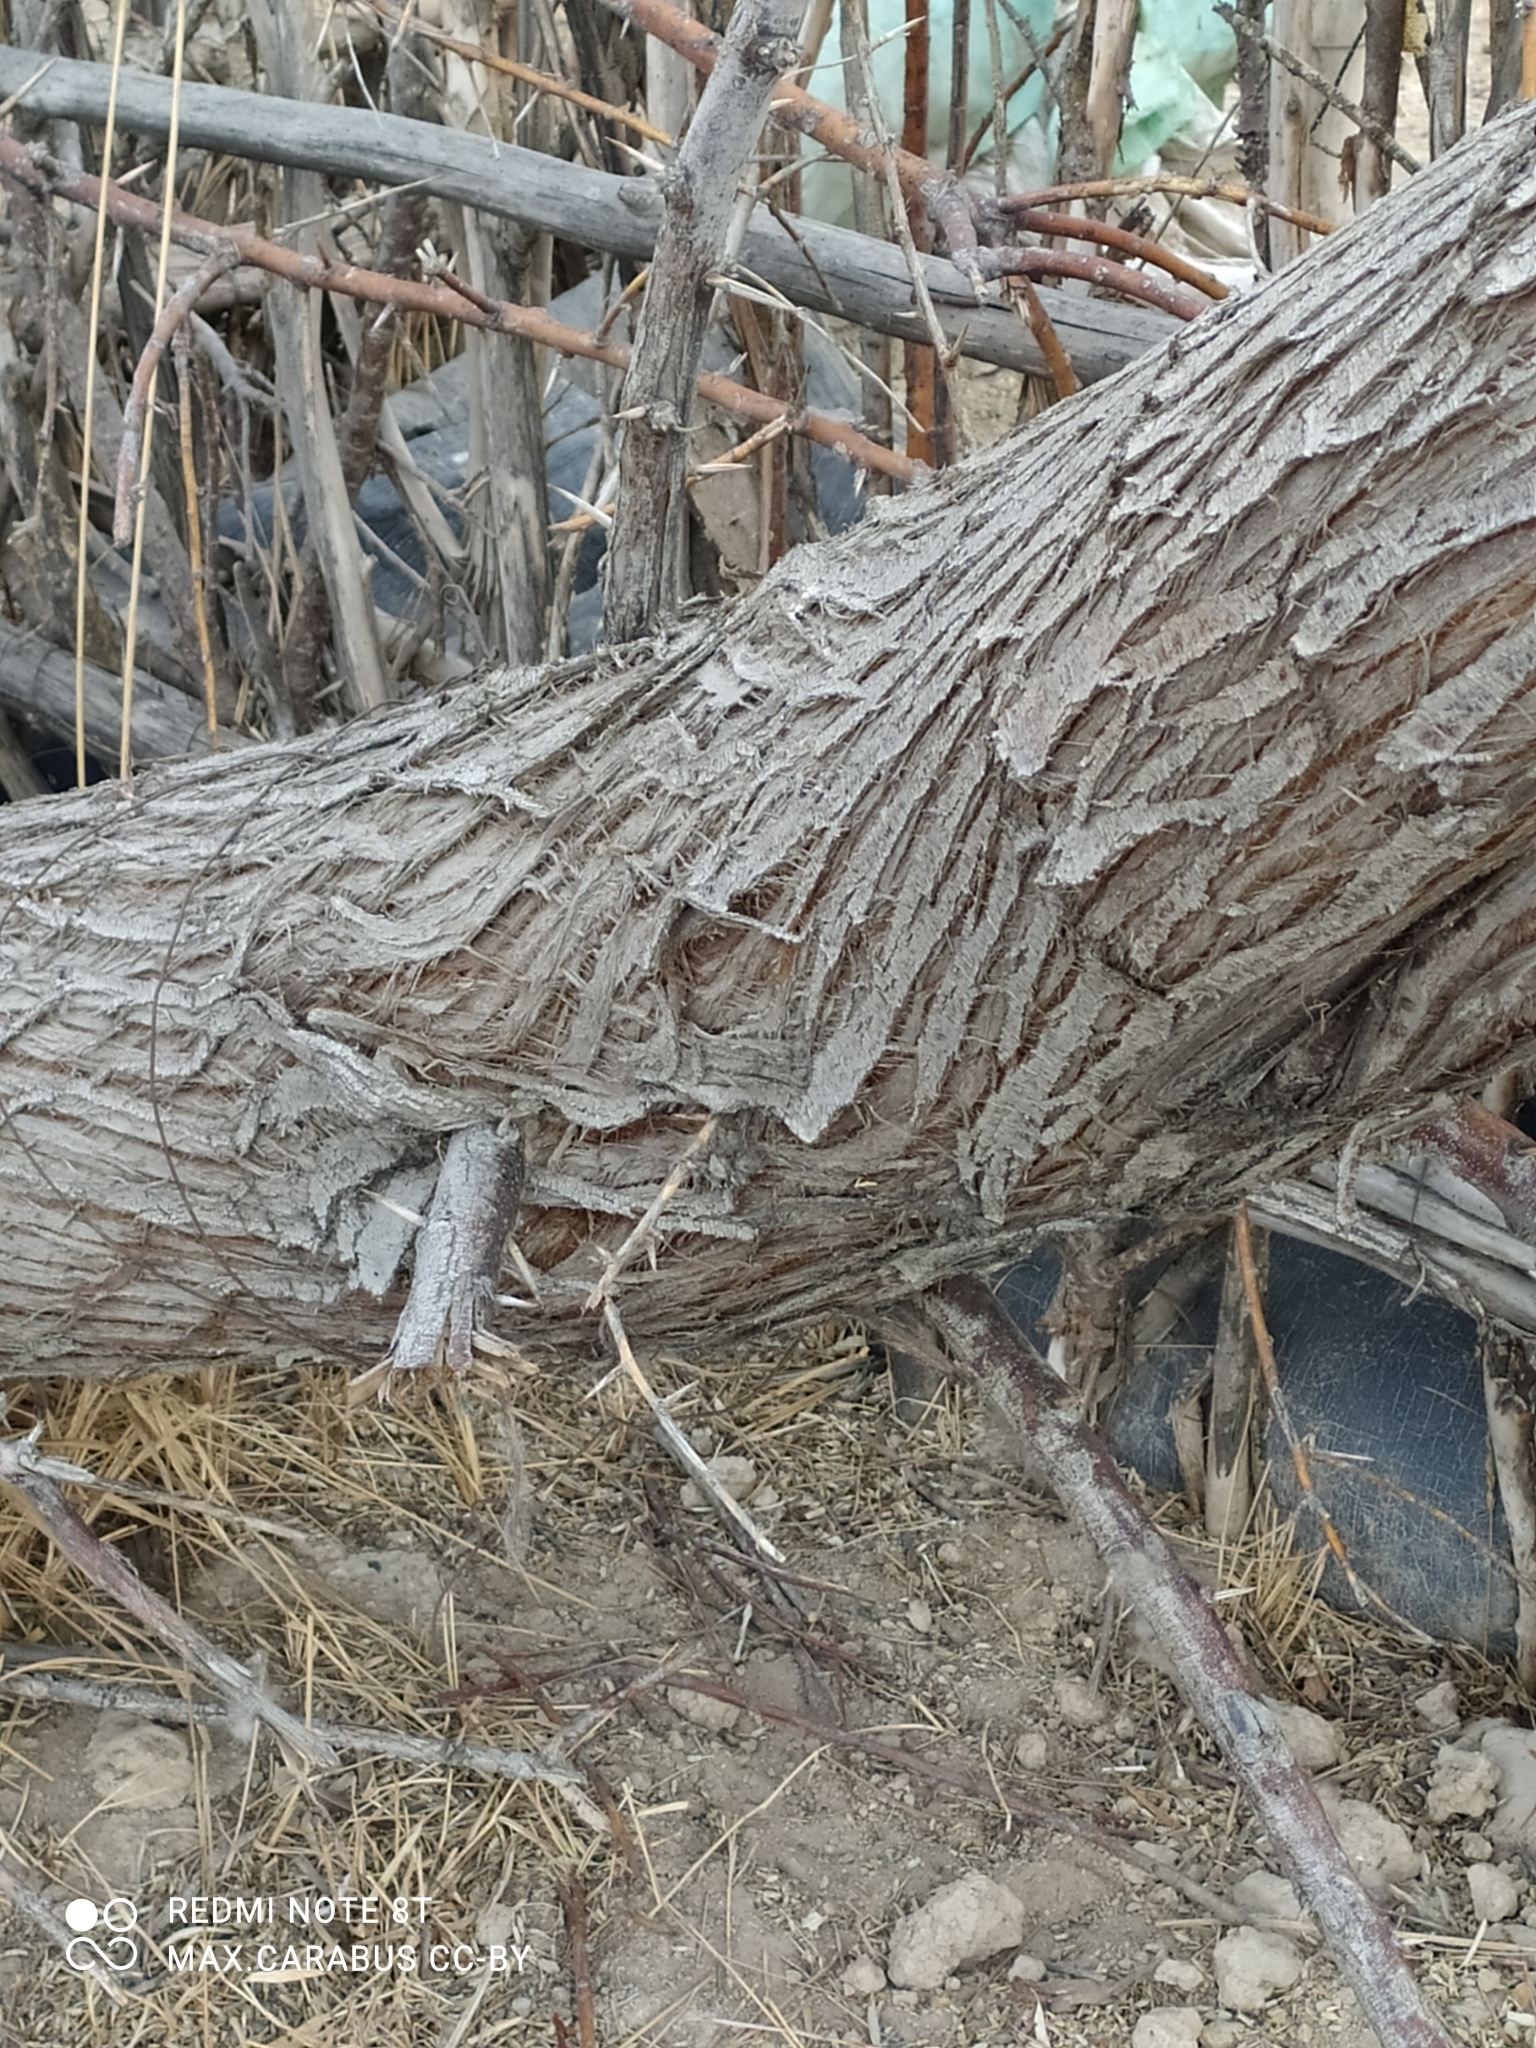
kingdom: Plantae
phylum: Tracheophyta
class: Magnoliopsida
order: Rosales
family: Elaeagnaceae
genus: Elaeagnus
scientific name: Elaeagnus angustifolia
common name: Russian olive
